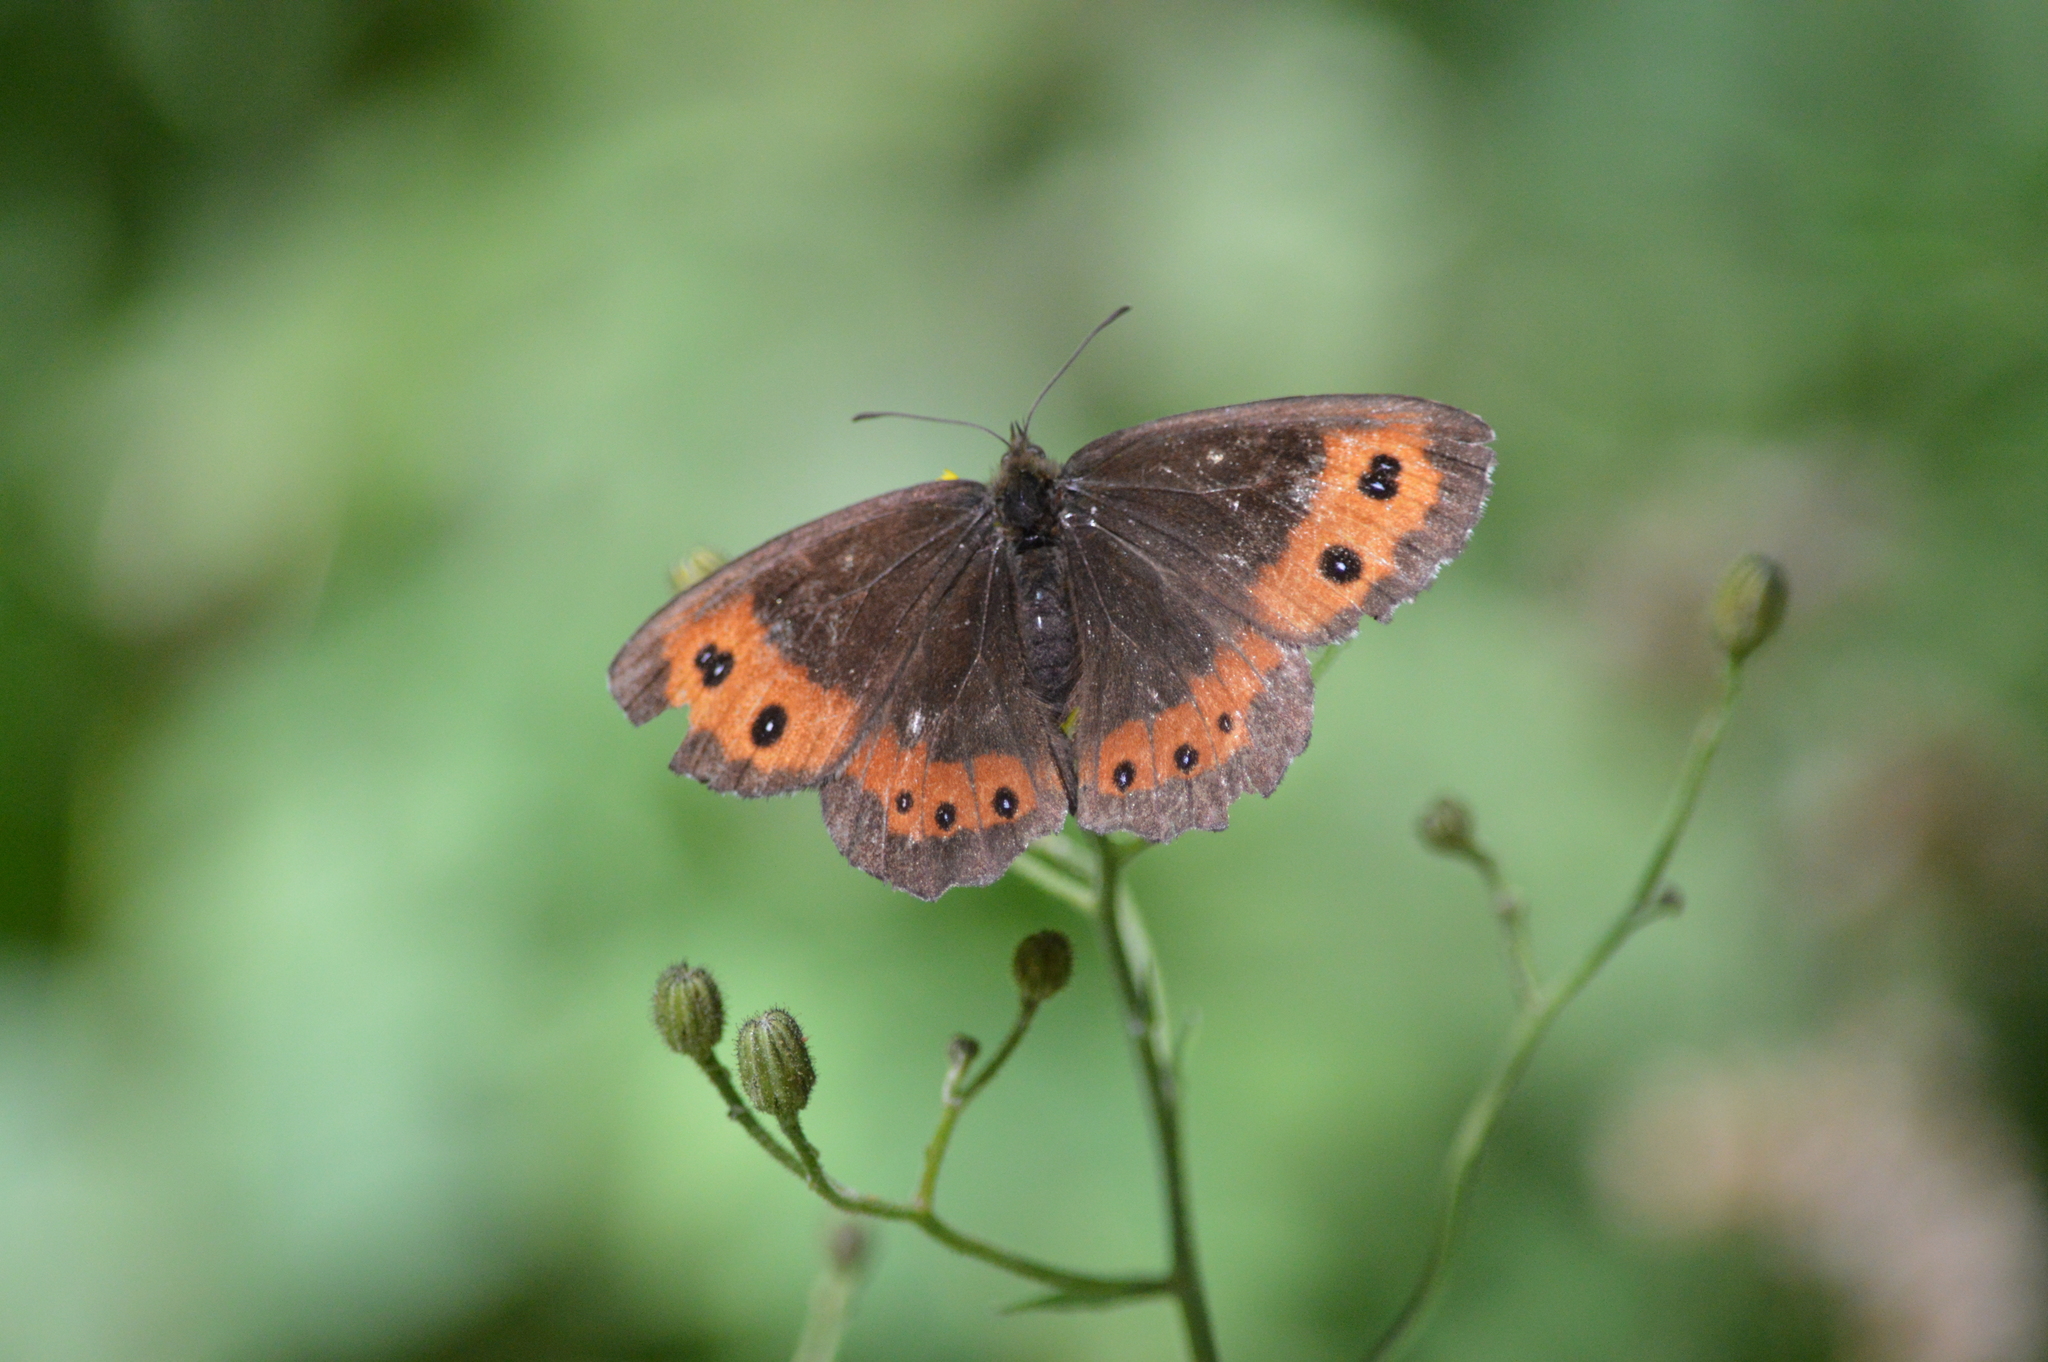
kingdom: Animalia
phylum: Arthropoda
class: Insecta
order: Lepidoptera
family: Nymphalidae
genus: Erebia
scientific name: Erebia ligea
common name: Arran brown
